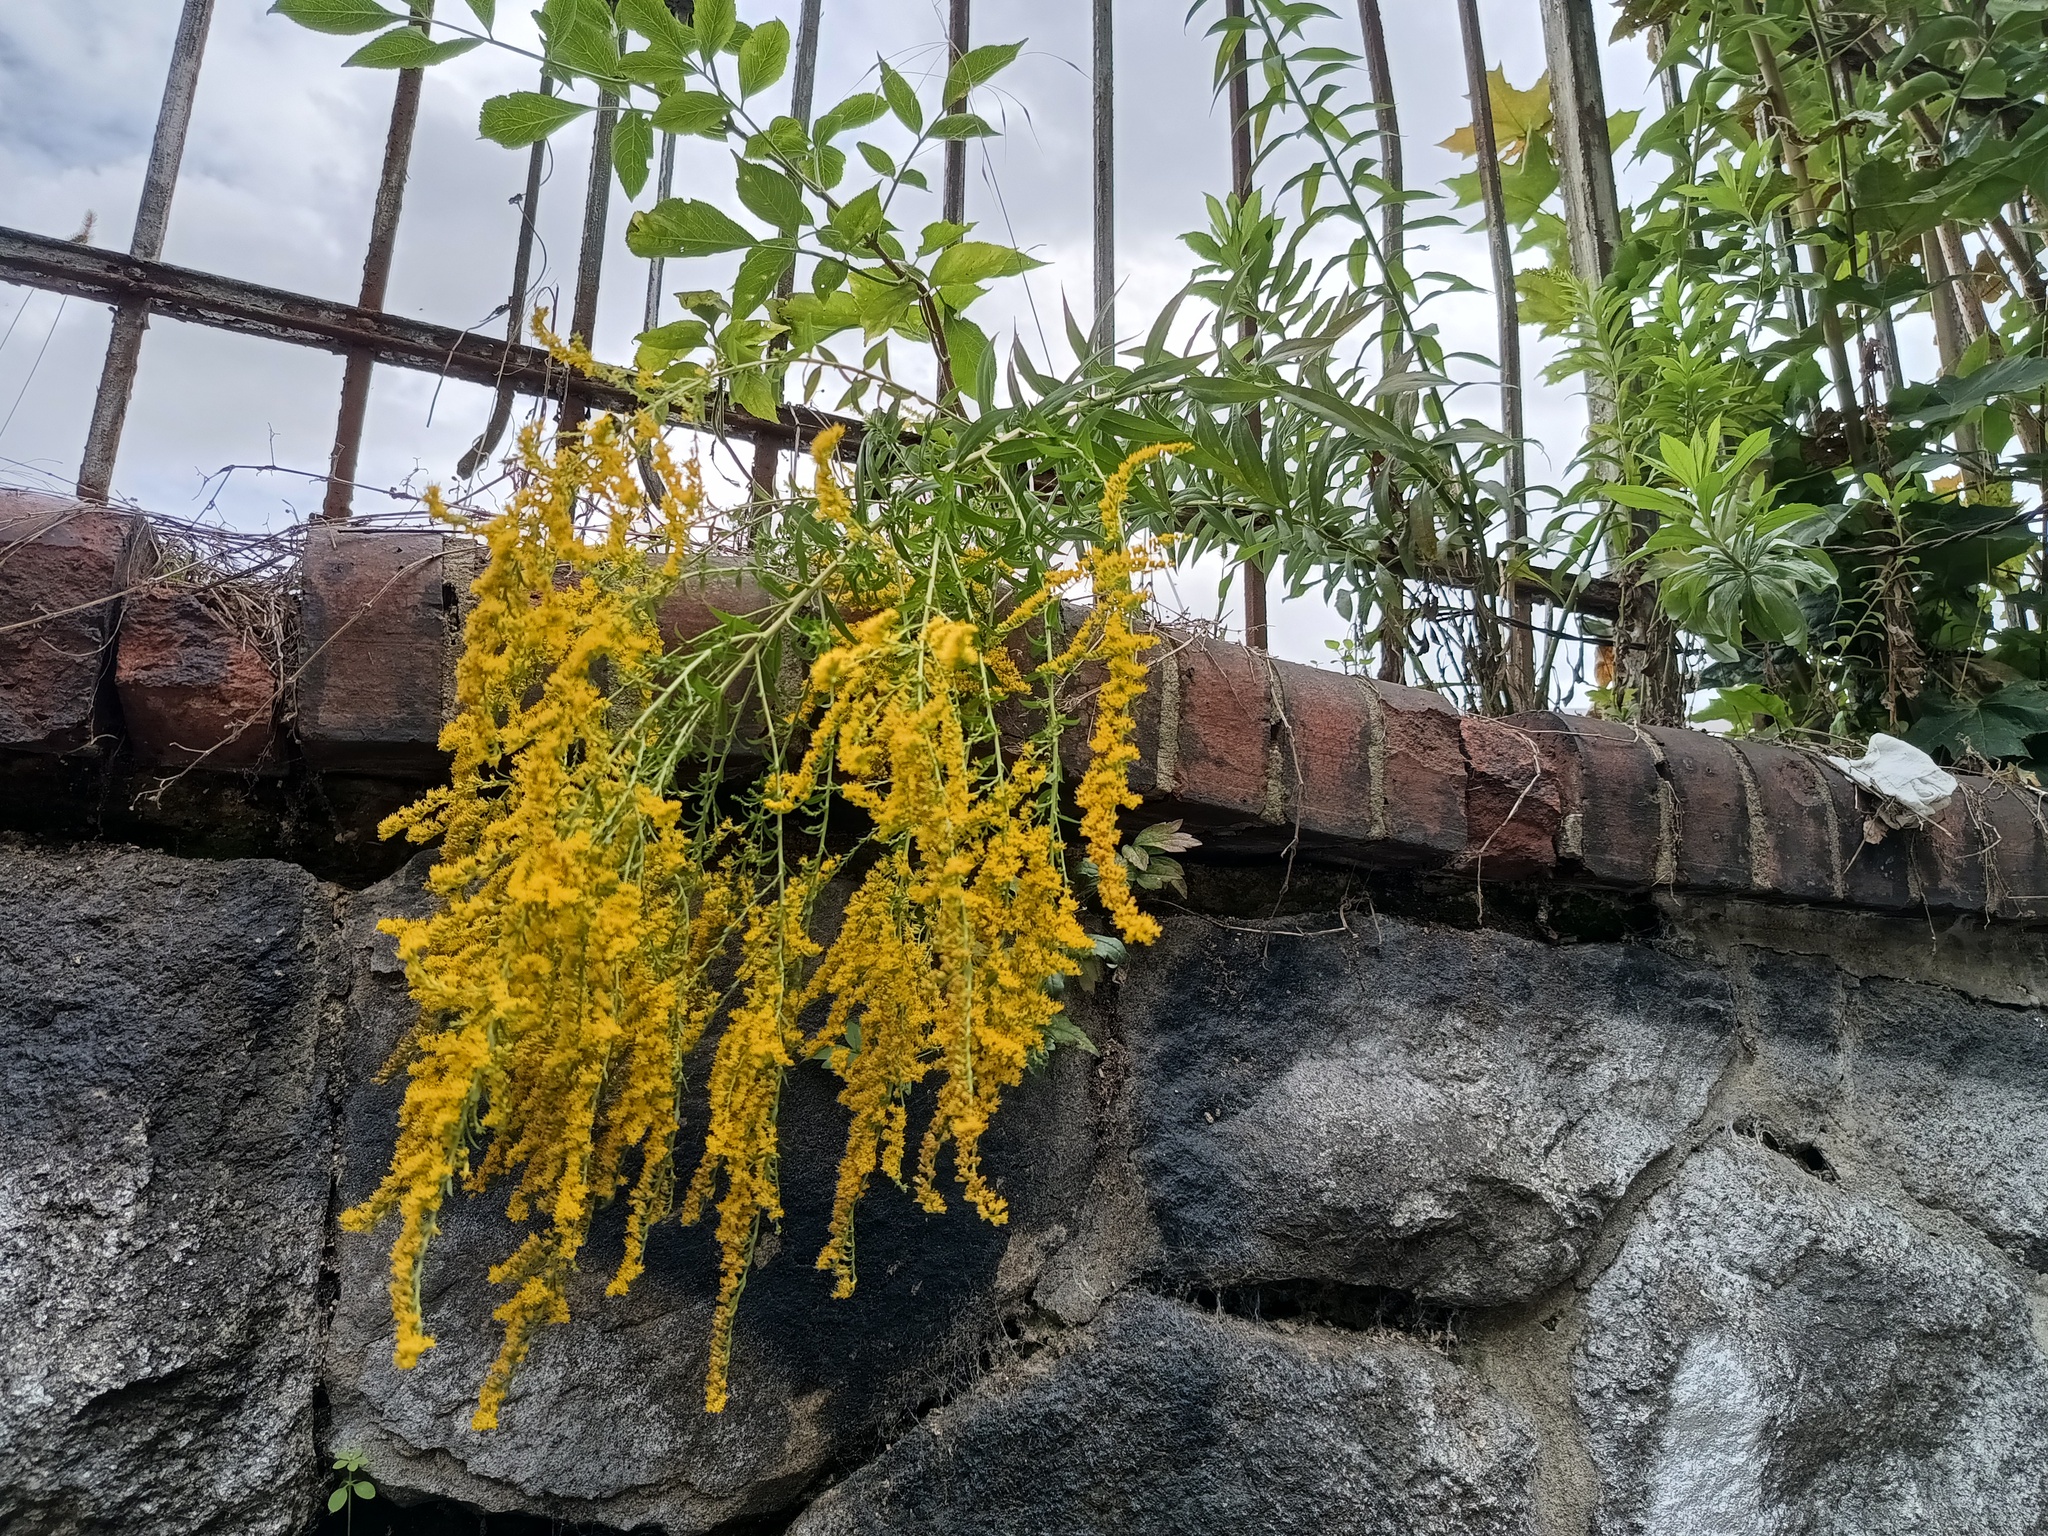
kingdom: Plantae
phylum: Tracheophyta
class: Magnoliopsida
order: Asterales
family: Asteraceae
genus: Solidago
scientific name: Solidago canadensis
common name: Canada goldenrod
